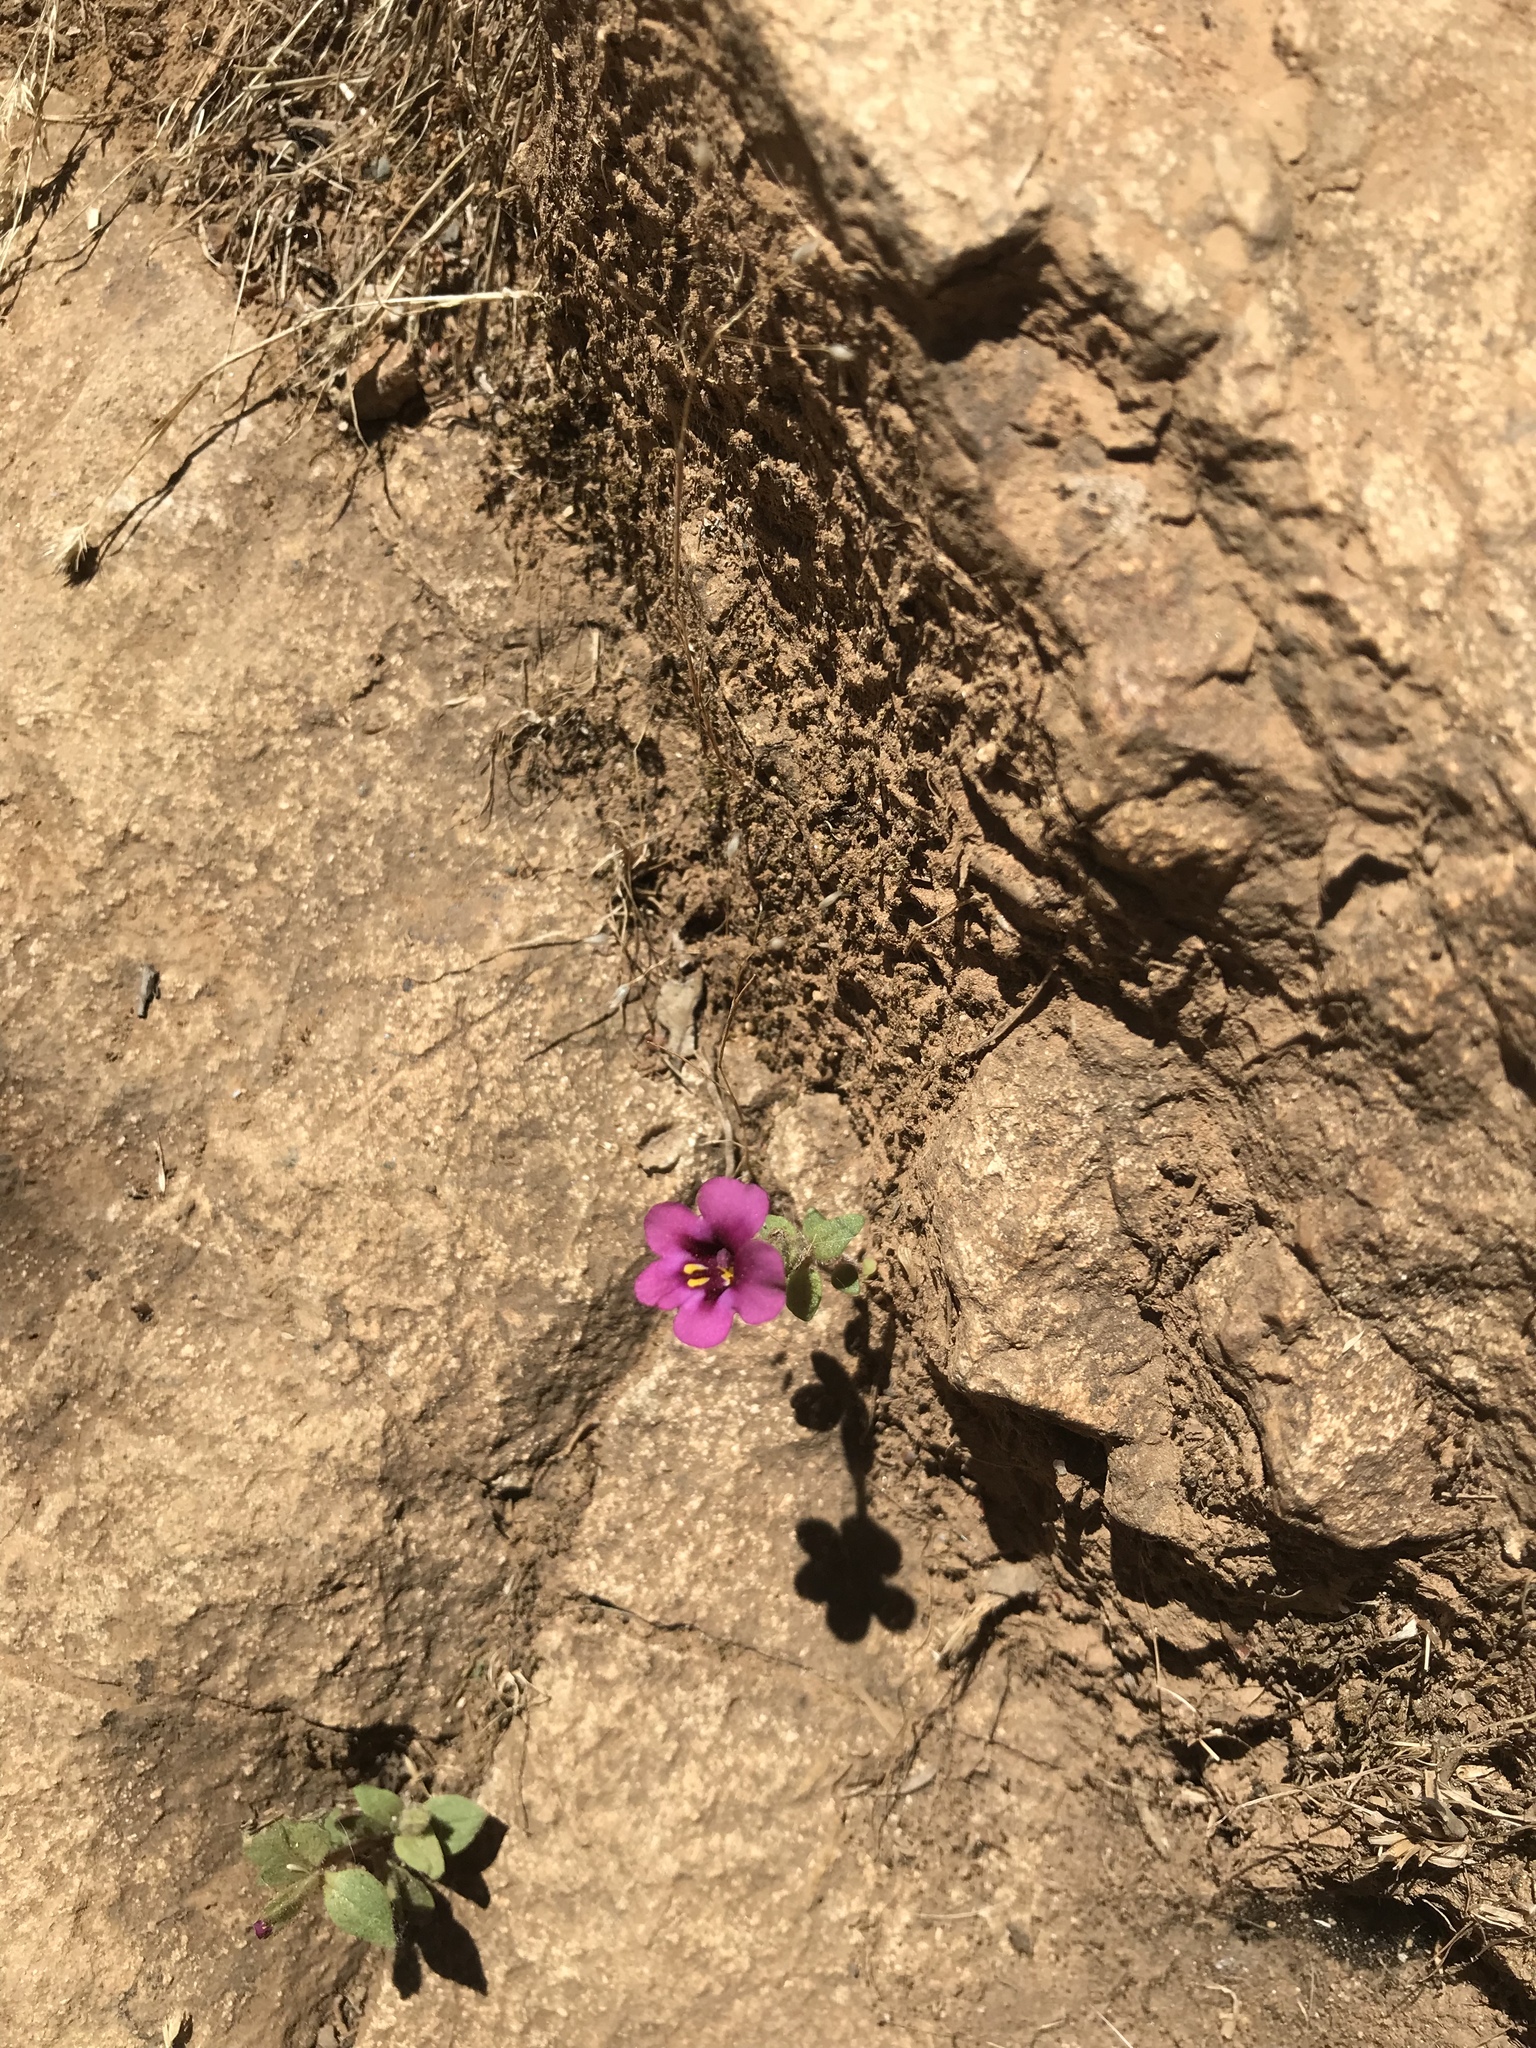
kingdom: Plantae
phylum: Tracheophyta
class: Magnoliopsida
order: Lamiales
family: Phrymaceae
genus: Diplacus
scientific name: Diplacus kelloggii
